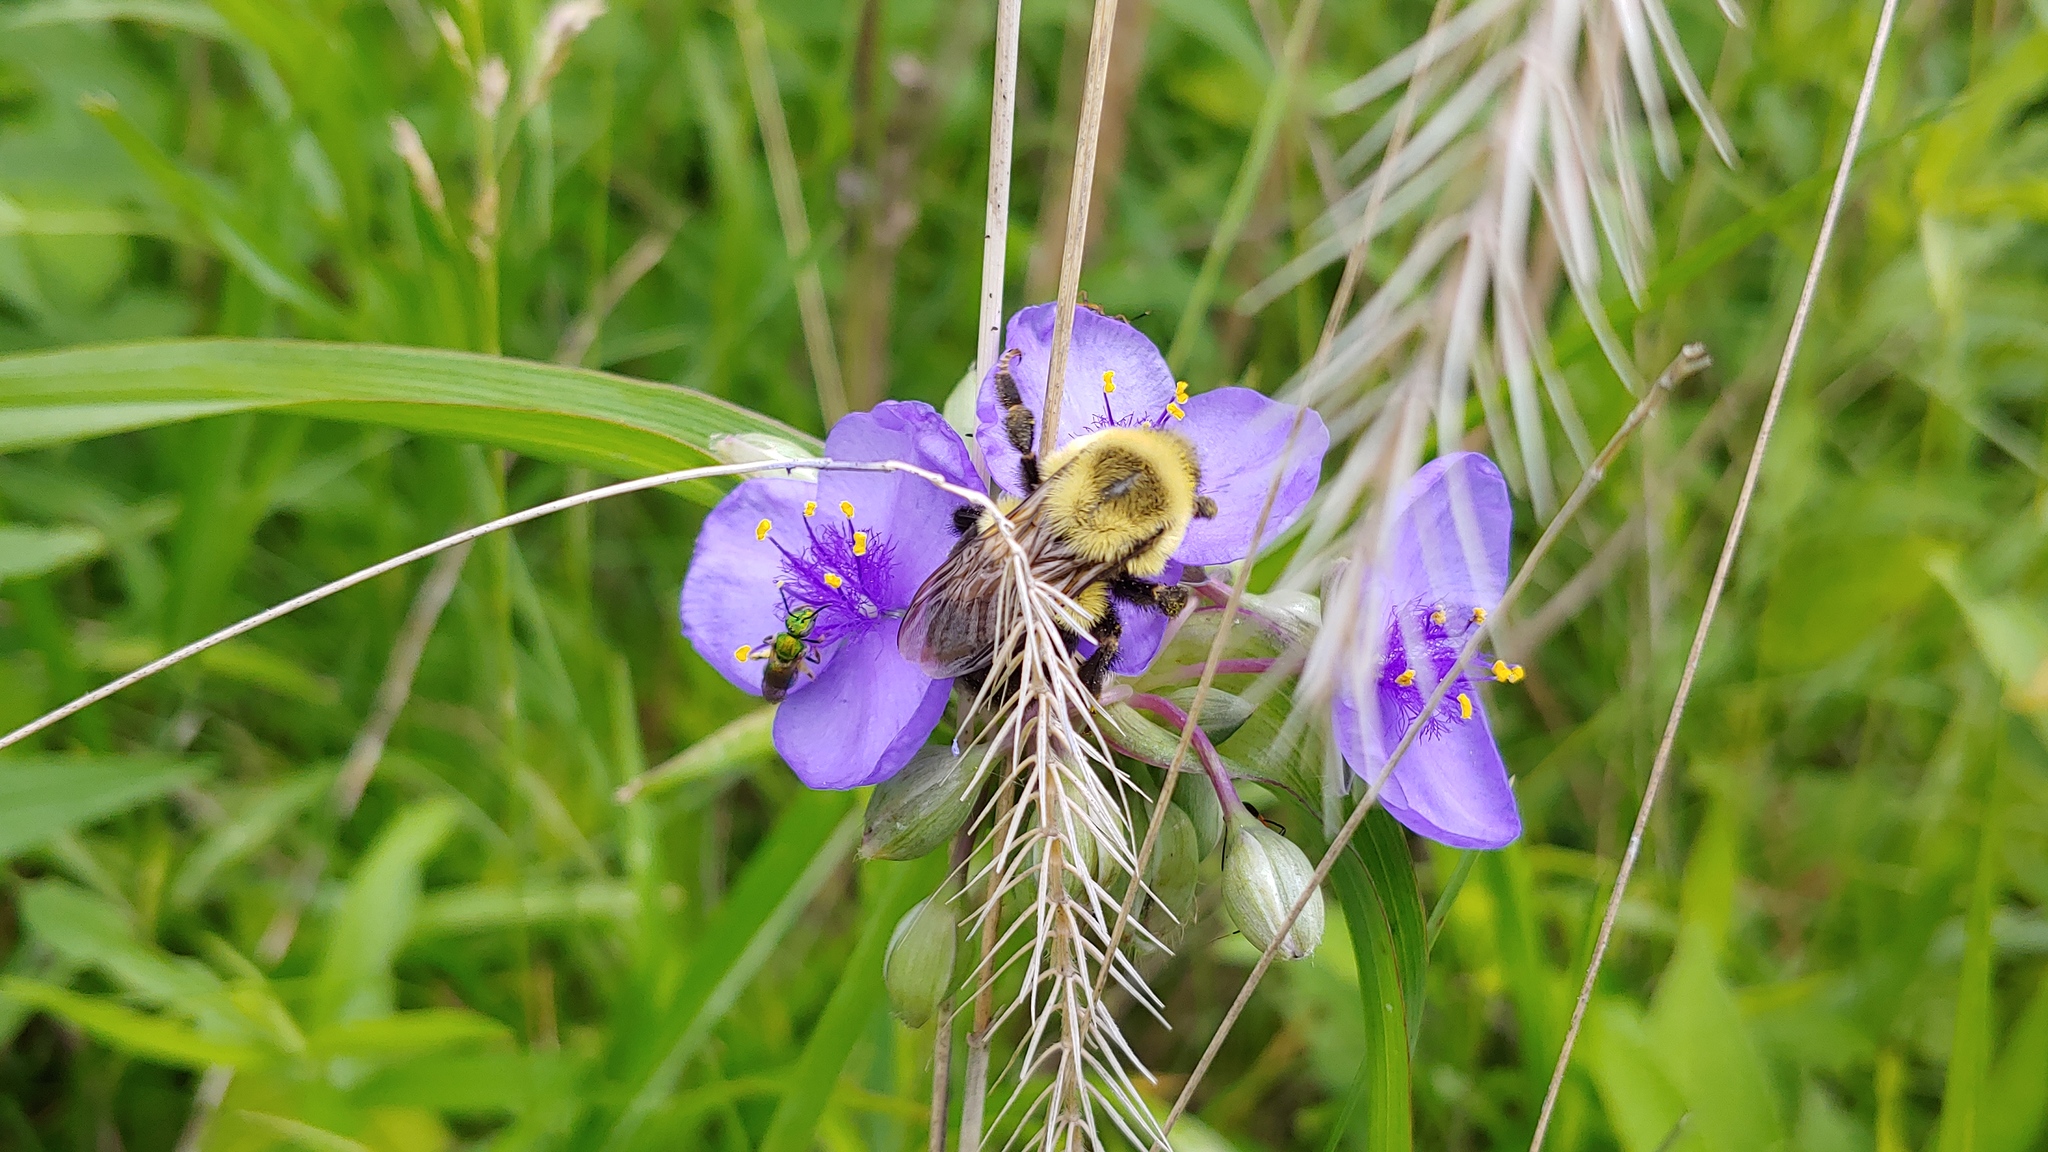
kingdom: Animalia
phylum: Arthropoda
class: Insecta
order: Hymenoptera
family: Apidae
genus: Bombus
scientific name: Bombus impatiens
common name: Common eastern bumble bee
